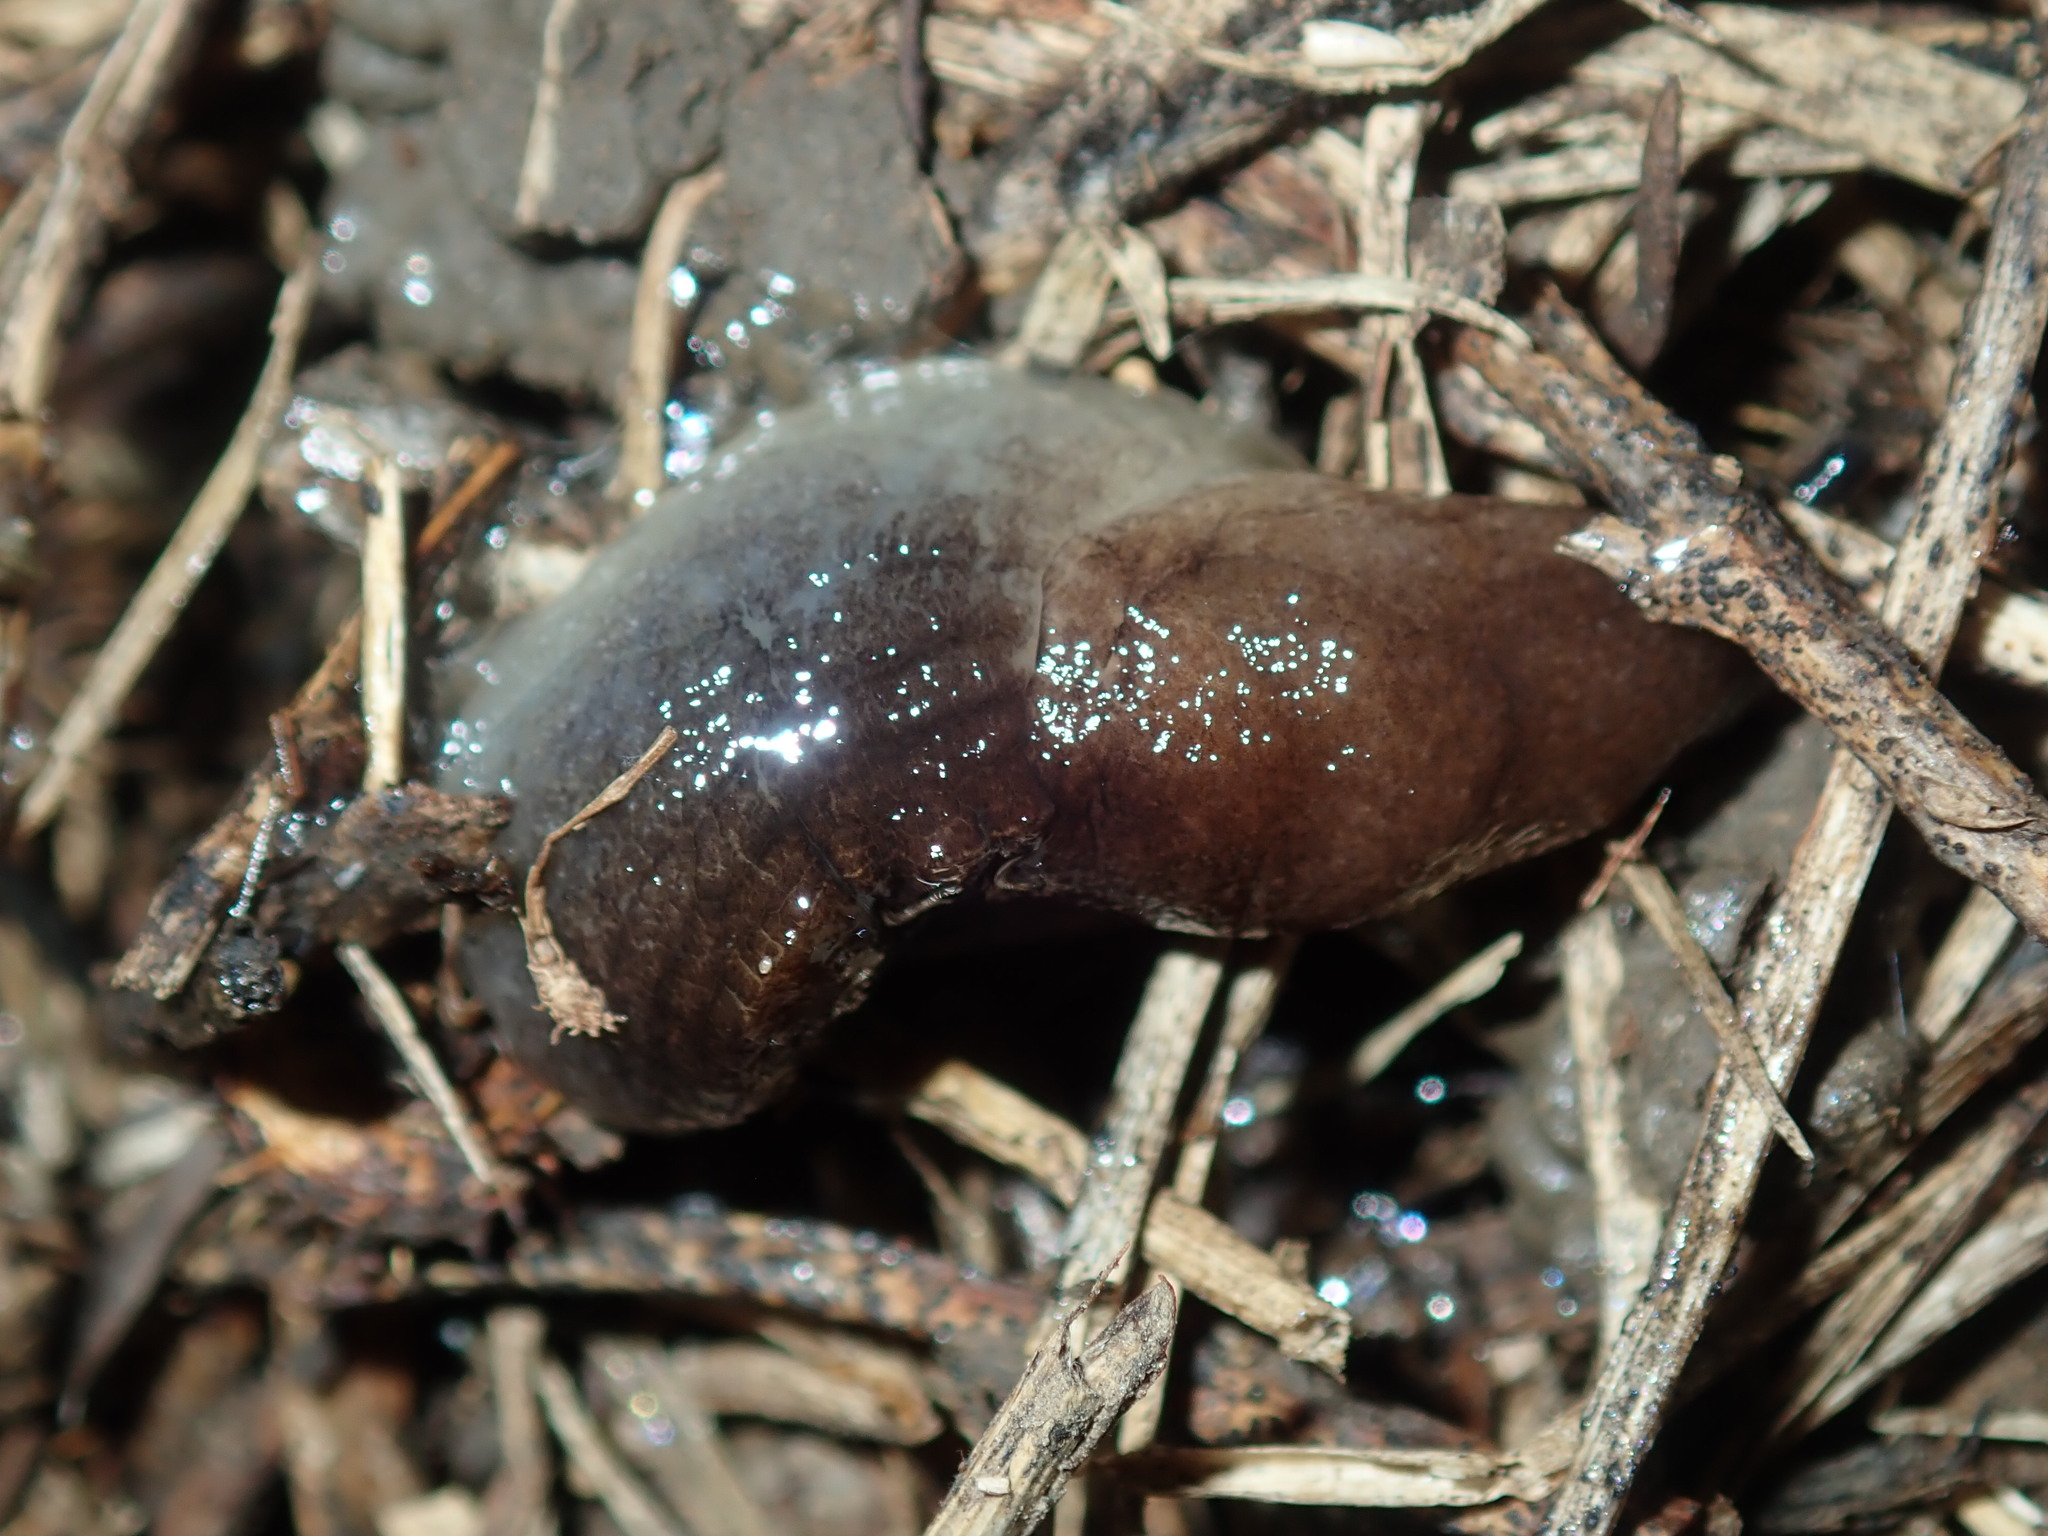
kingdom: Animalia
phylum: Mollusca
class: Gastropoda
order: Stylommatophora
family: Milacidae
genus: Milax
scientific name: Milax gagates
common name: Greenhouse slug
